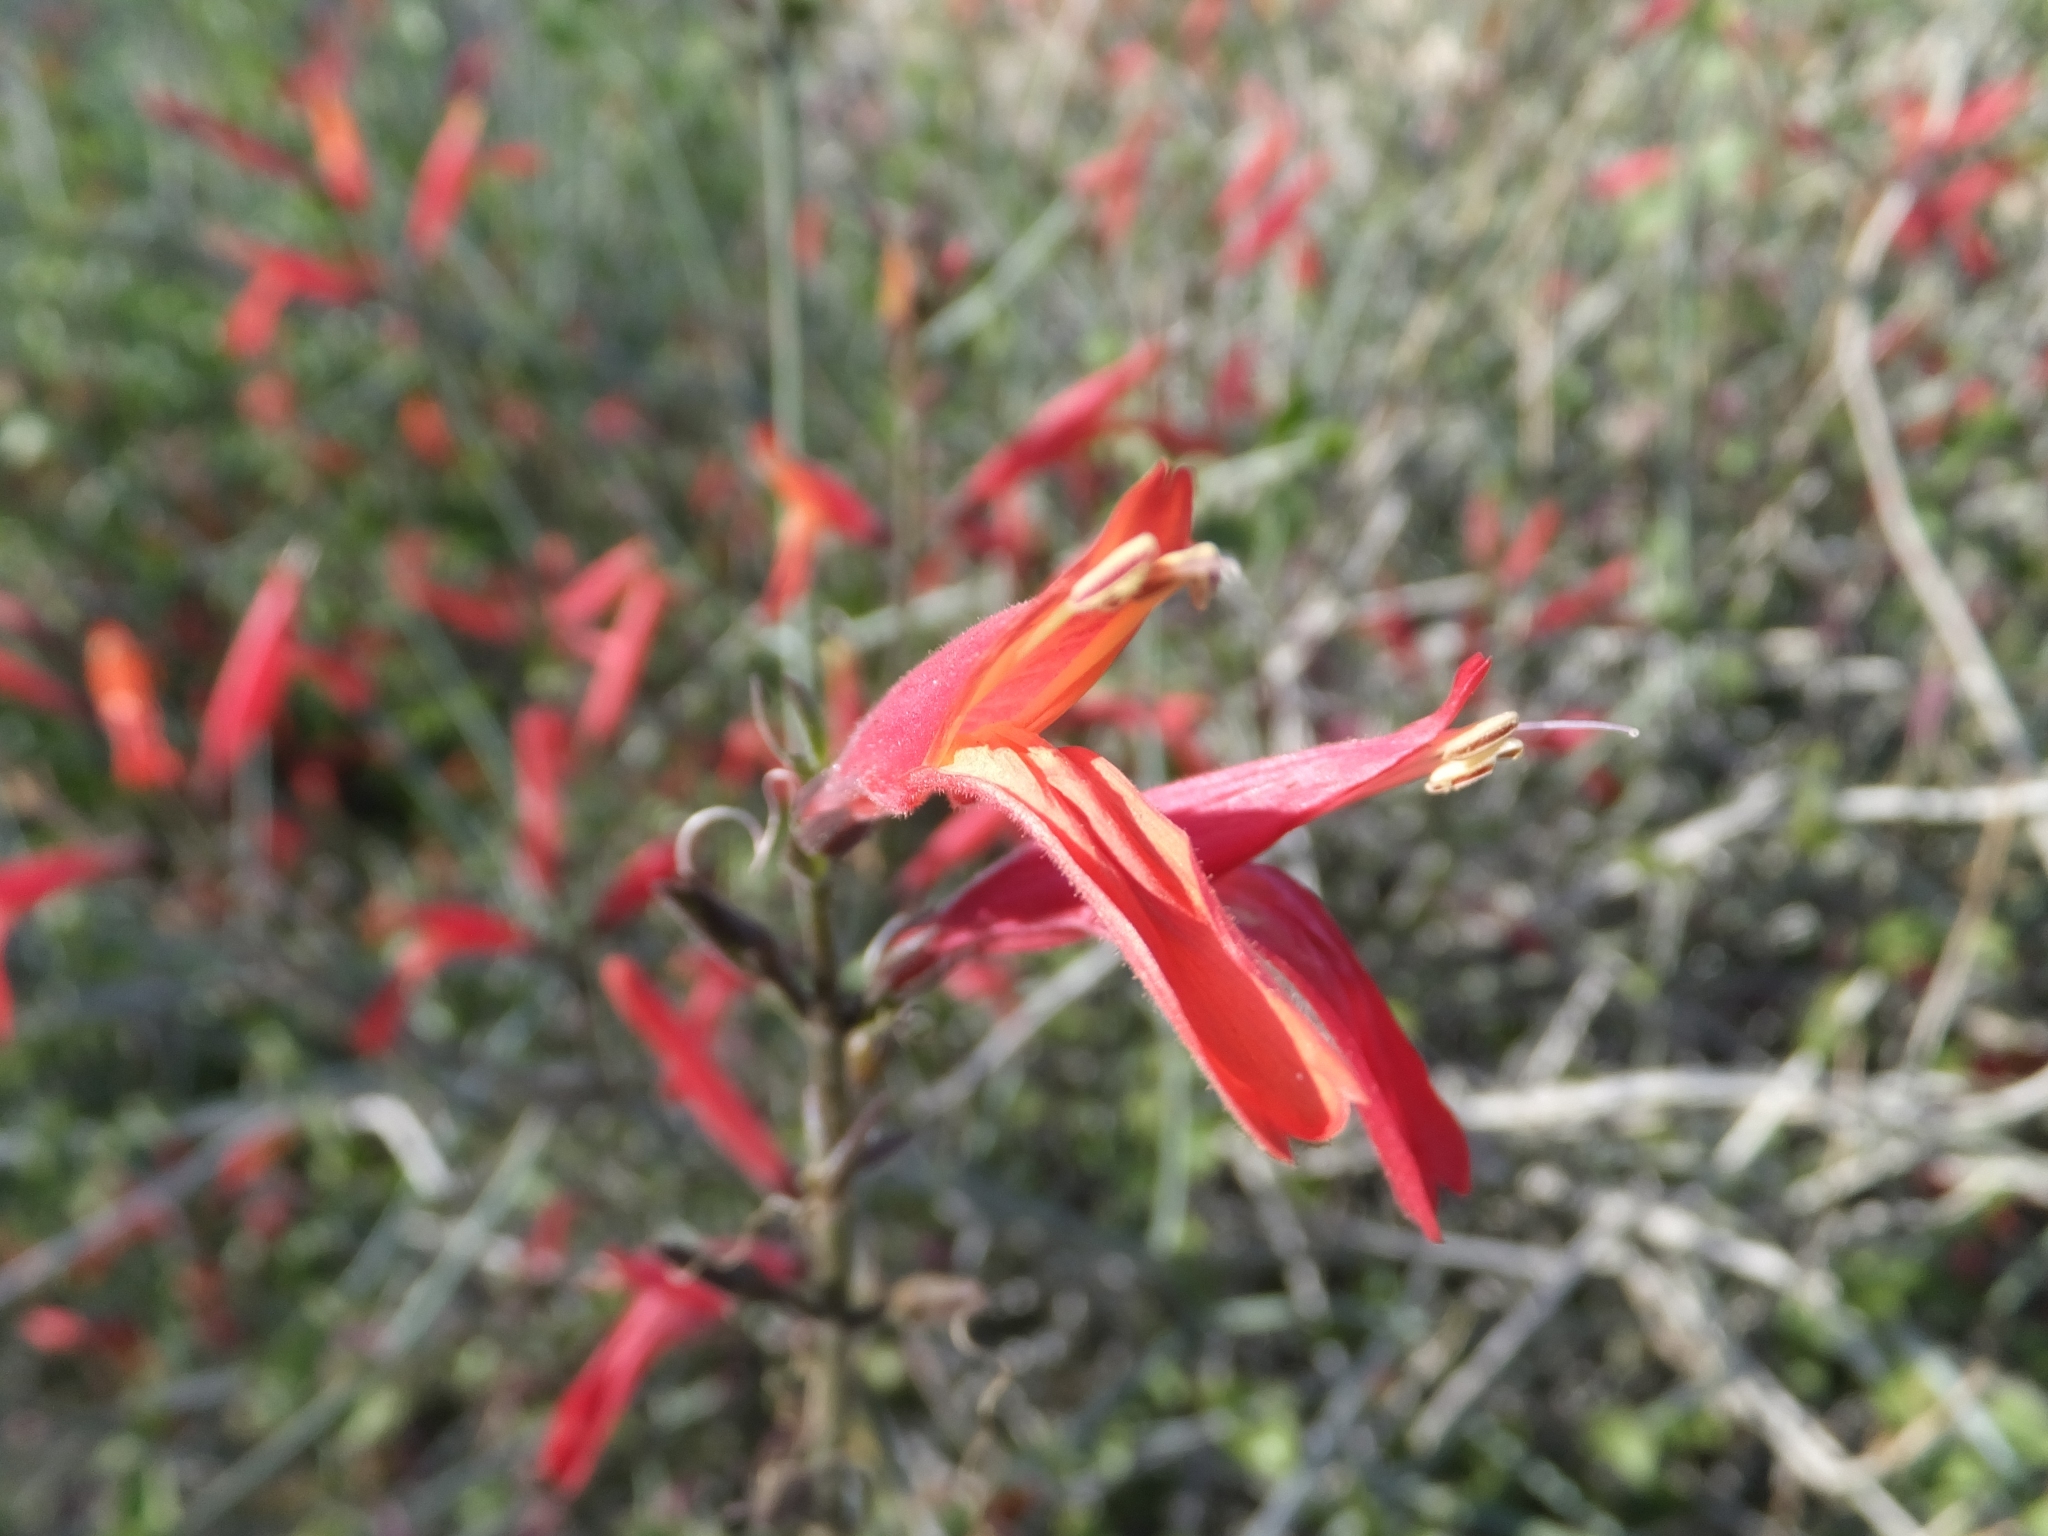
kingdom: Plantae
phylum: Tracheophyta
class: Magnoliopsida
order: Lamiales
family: Acanthaceae
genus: Justicia
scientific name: Justicia californica
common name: Chuparosa-honeysuckle
